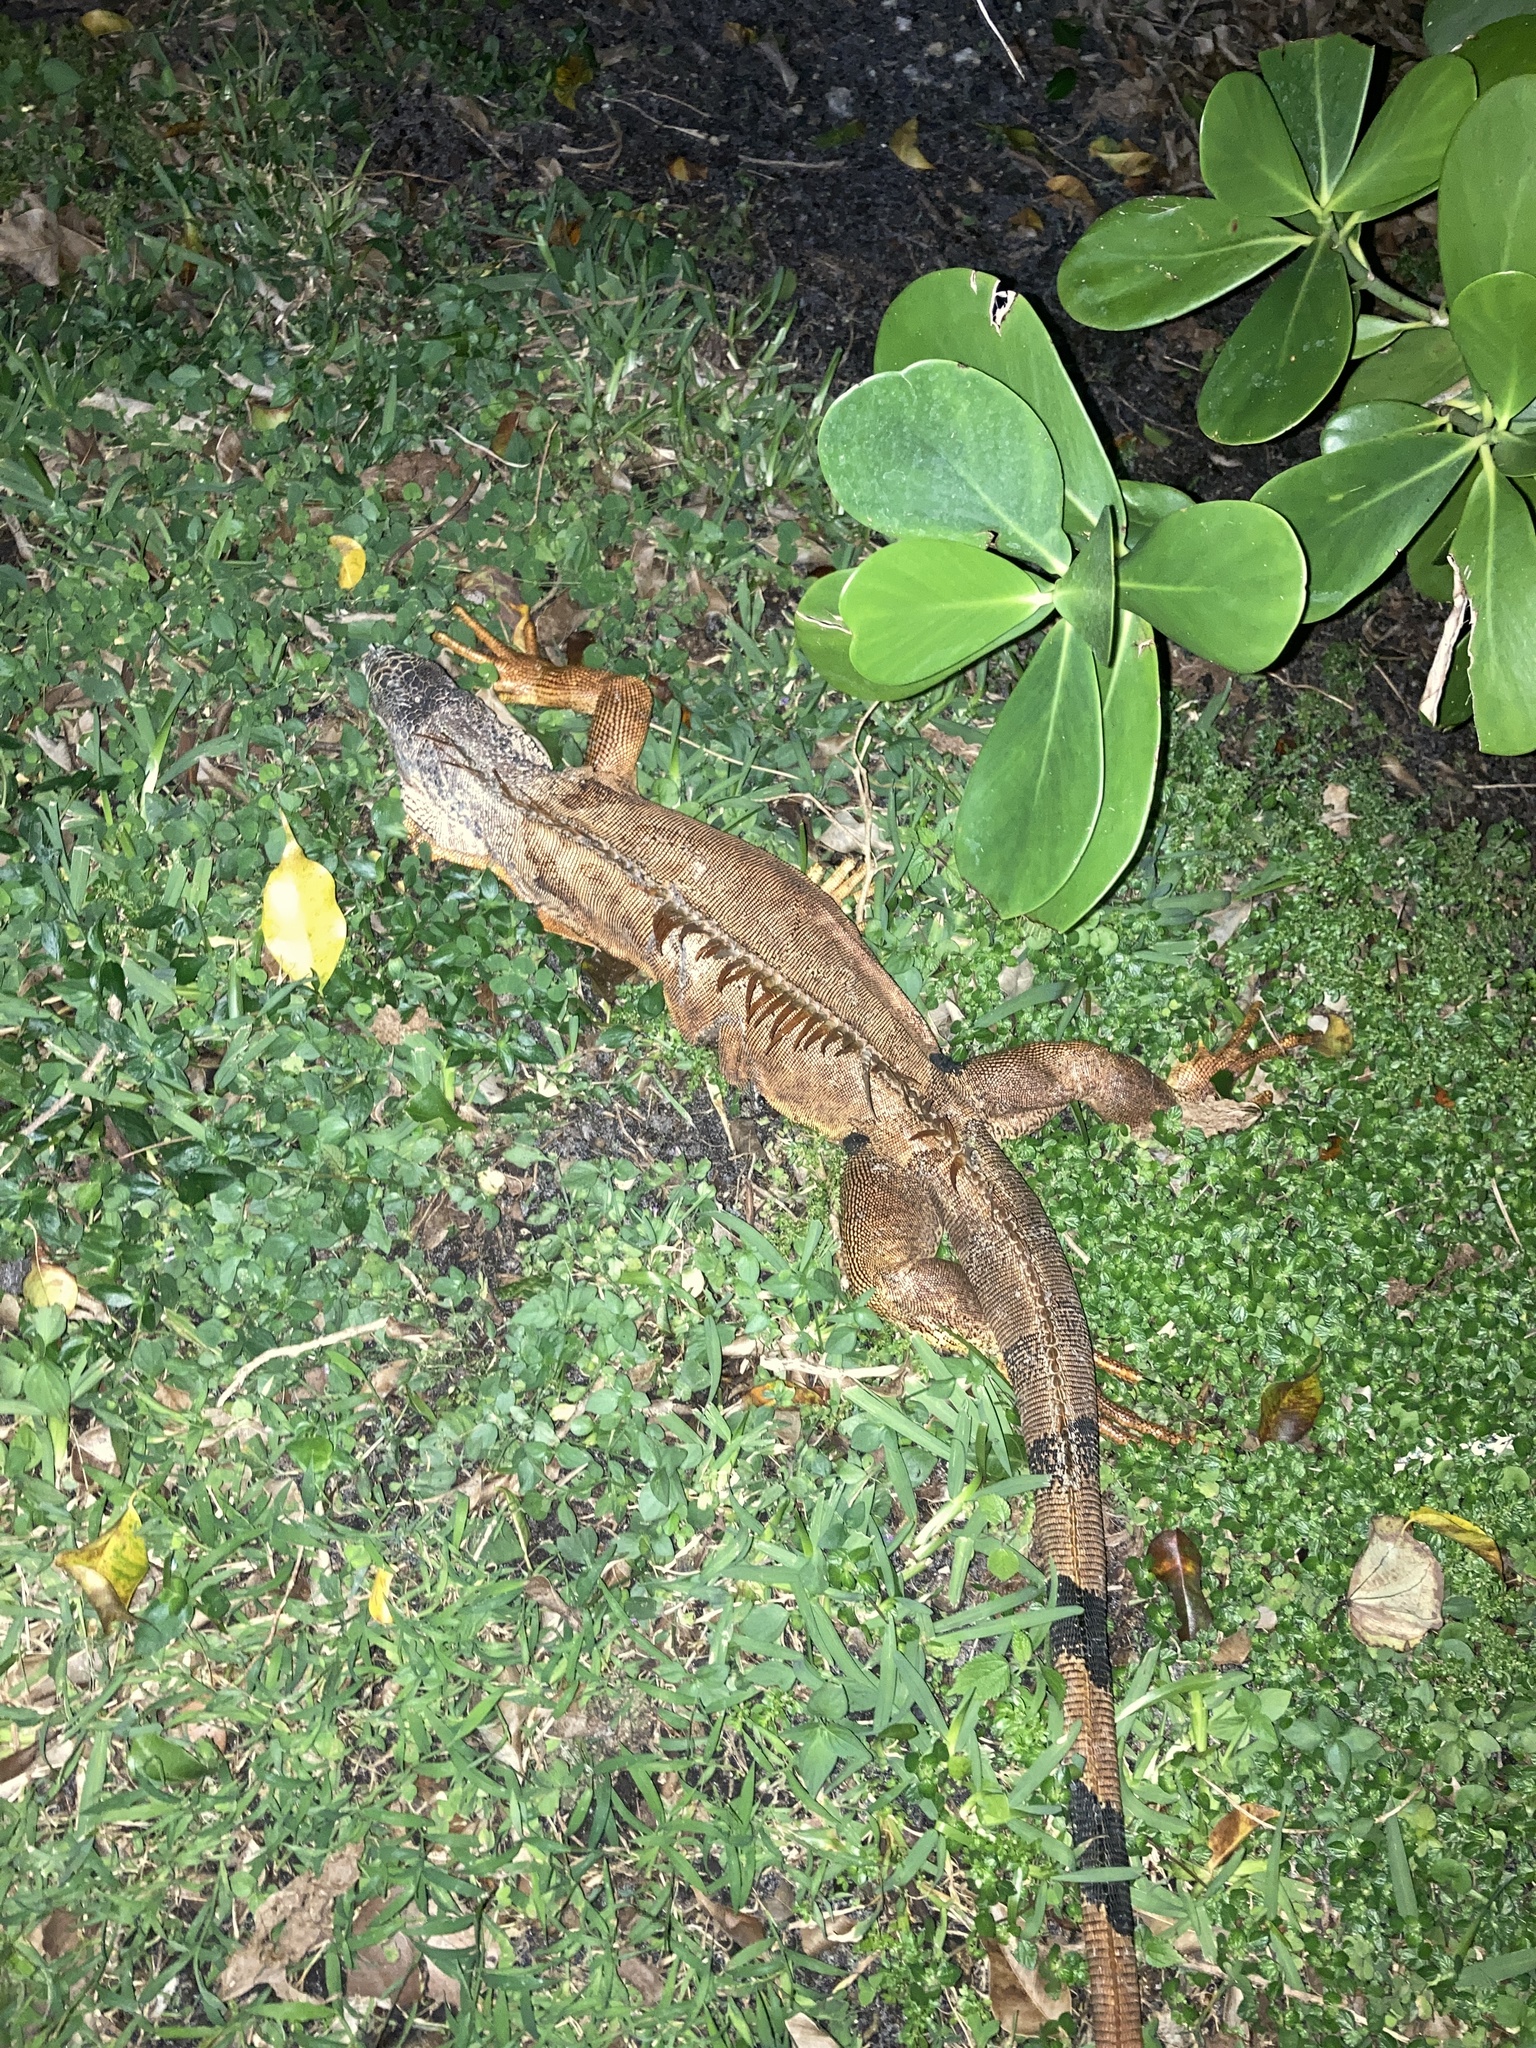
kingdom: Animalia
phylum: Chordata
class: Squamata
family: Iguanidae
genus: Iguana
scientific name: Iguana iguana
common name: Green iguana
